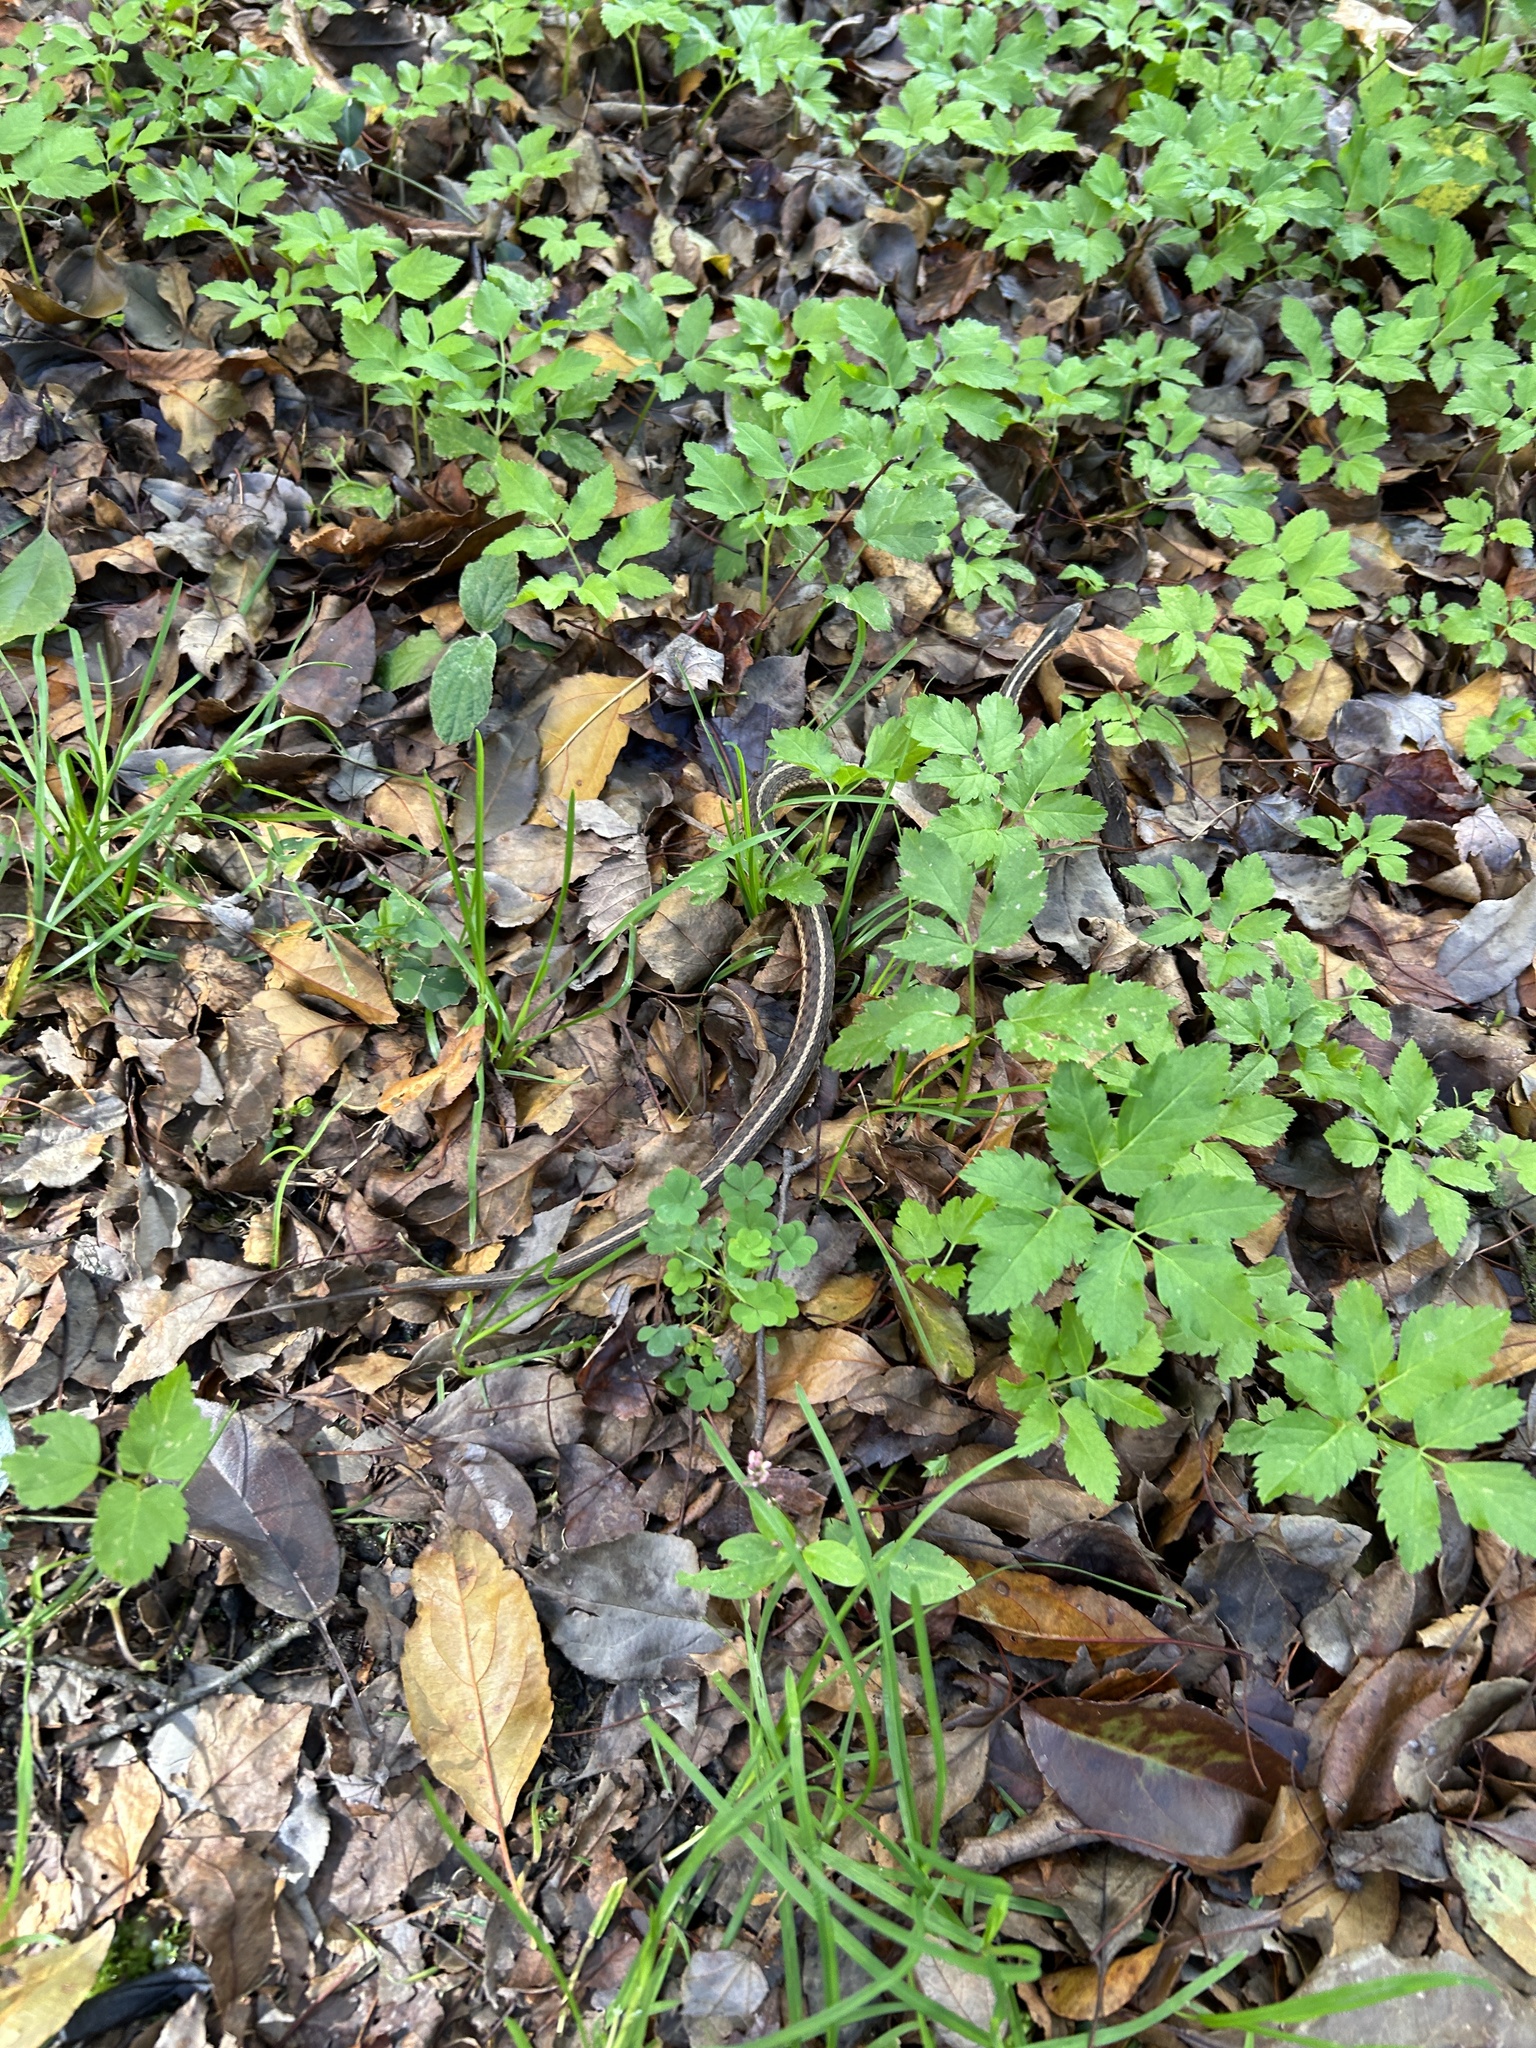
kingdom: Animalia
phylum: Chordata
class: Squamata
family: Colubridae
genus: Thamnophis
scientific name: Thamnophis sirtalis
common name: Common garter snake
